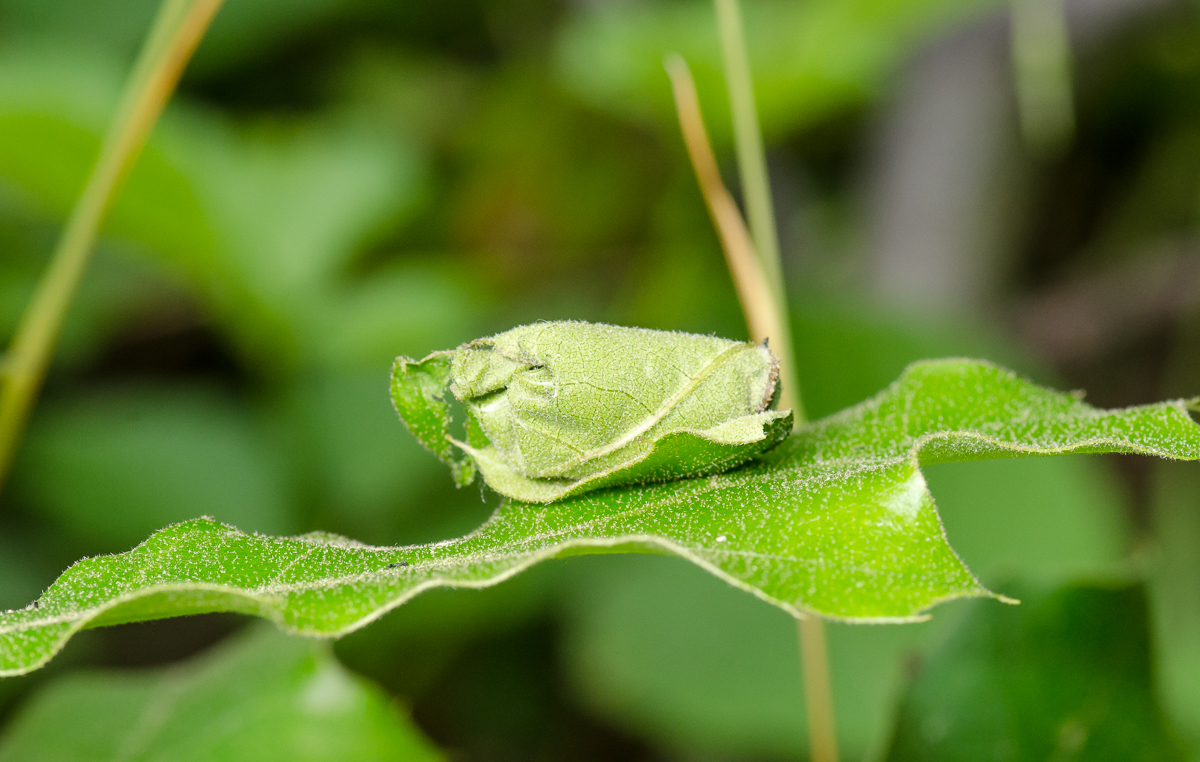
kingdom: Animalia
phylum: Arthropoda
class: Insecta
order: Coleoptera
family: Attelabidae
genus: Homoeolabus
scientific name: Homoeolabus analis
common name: Oak leaf rolling weevil
